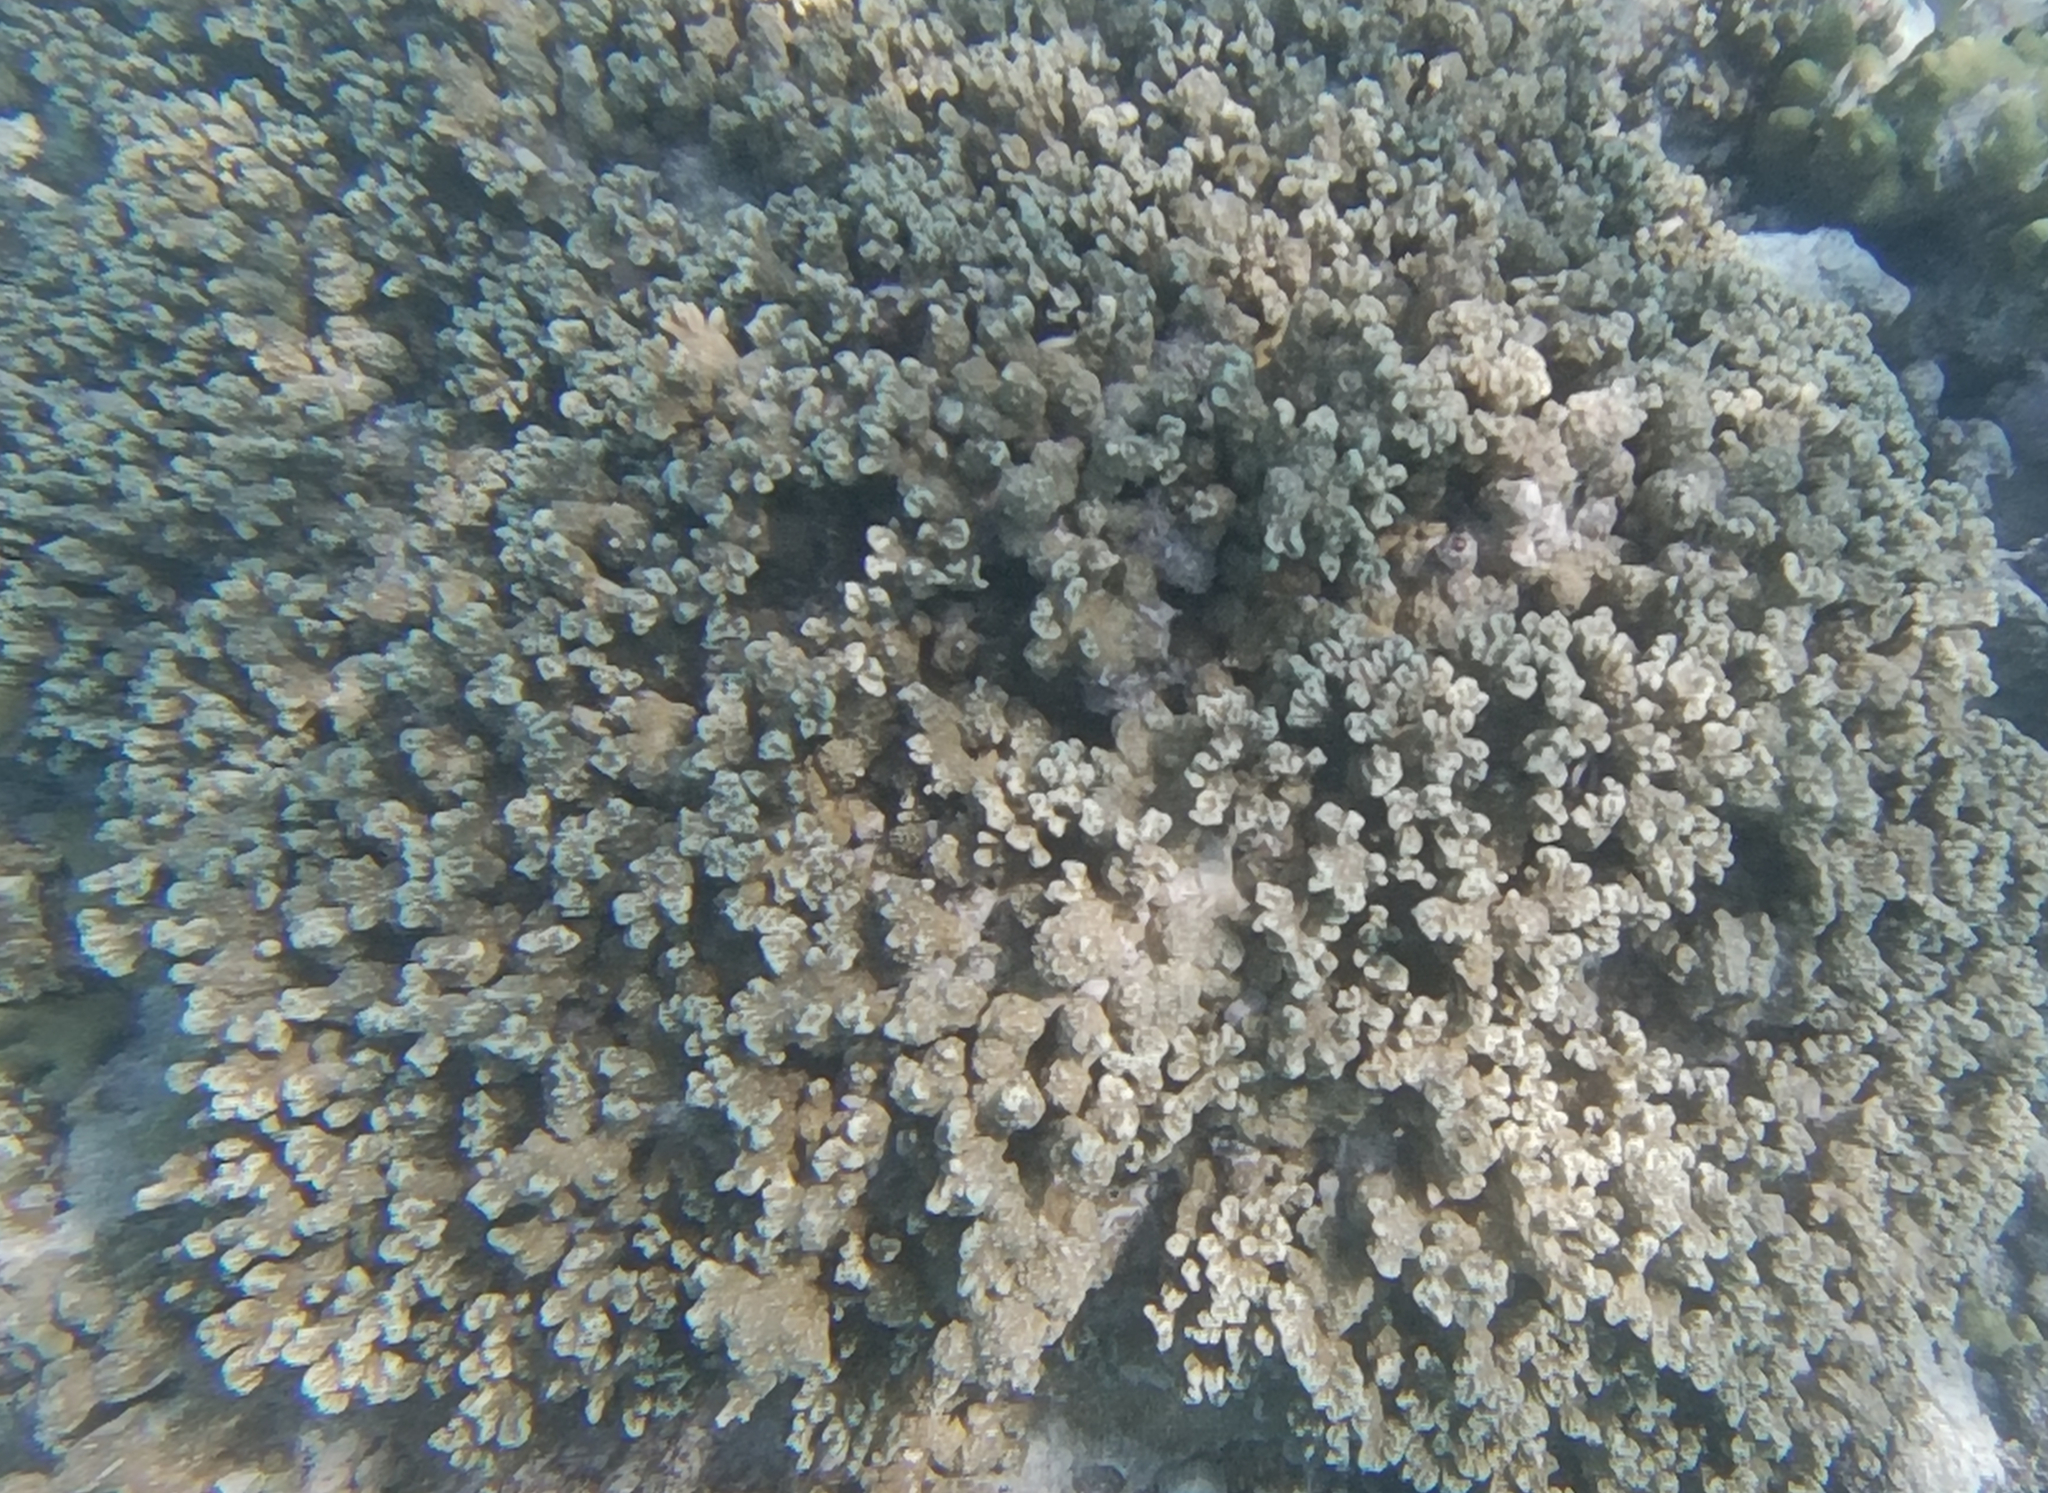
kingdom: Animalia
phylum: Cnidaria
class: Anthozoa
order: Scleractinia
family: Poritidae
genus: Porites
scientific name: Porites rus
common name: Hump coral
